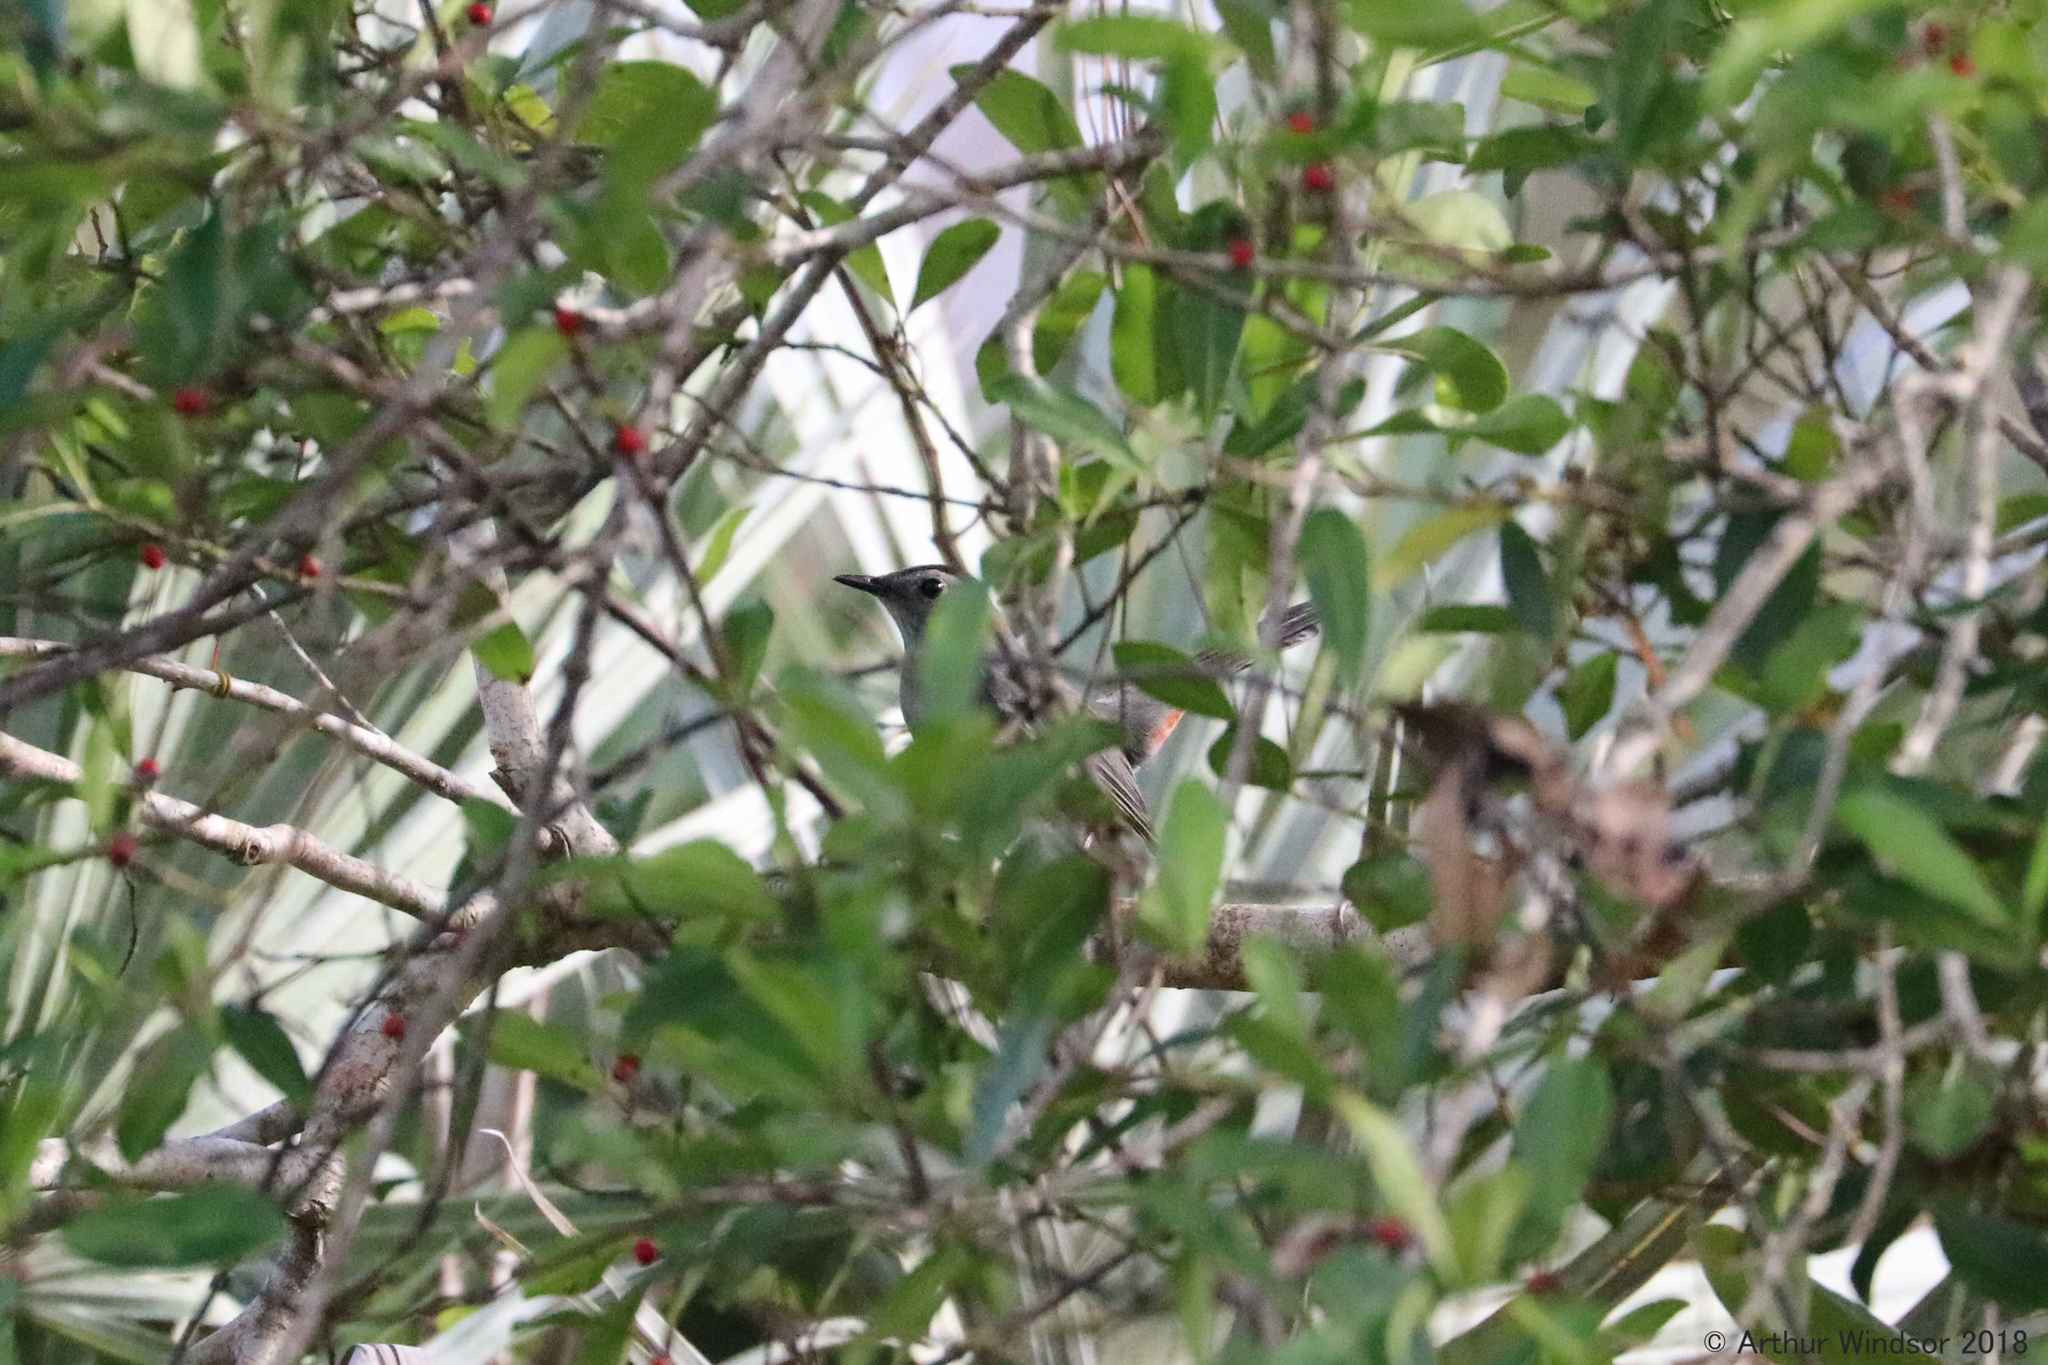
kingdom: Animalia
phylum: Chordata
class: Aves
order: Passeriformes
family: Mimidae
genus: Dumetella
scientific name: Dumetella carolinensis
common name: Gray catbird
